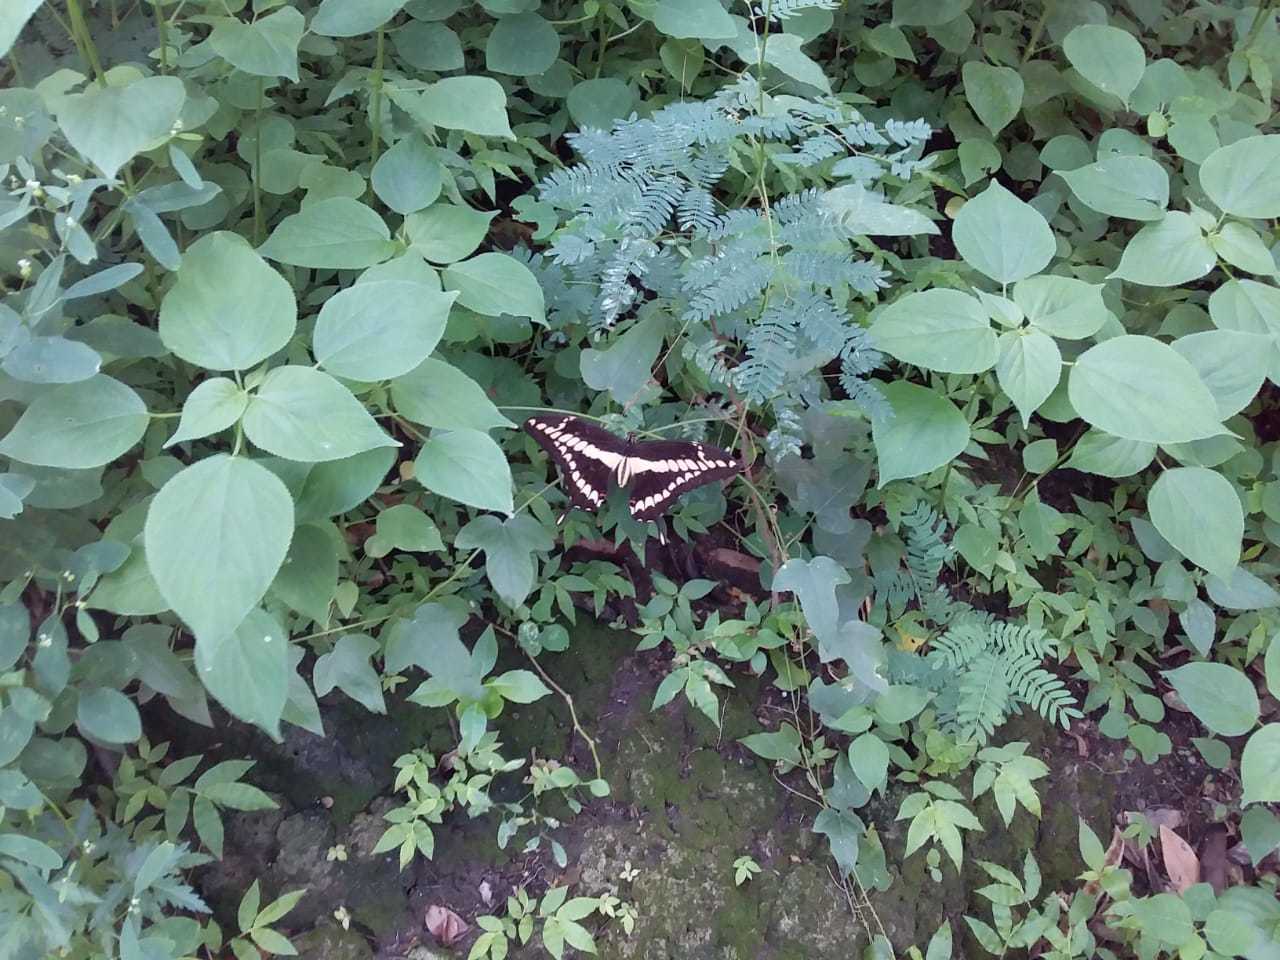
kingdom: Animalia
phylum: Arthropoda
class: Insecta
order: Lepidoptera
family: Papilionidae
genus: Papilio
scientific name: Papilio thoas
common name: King swallowtail
